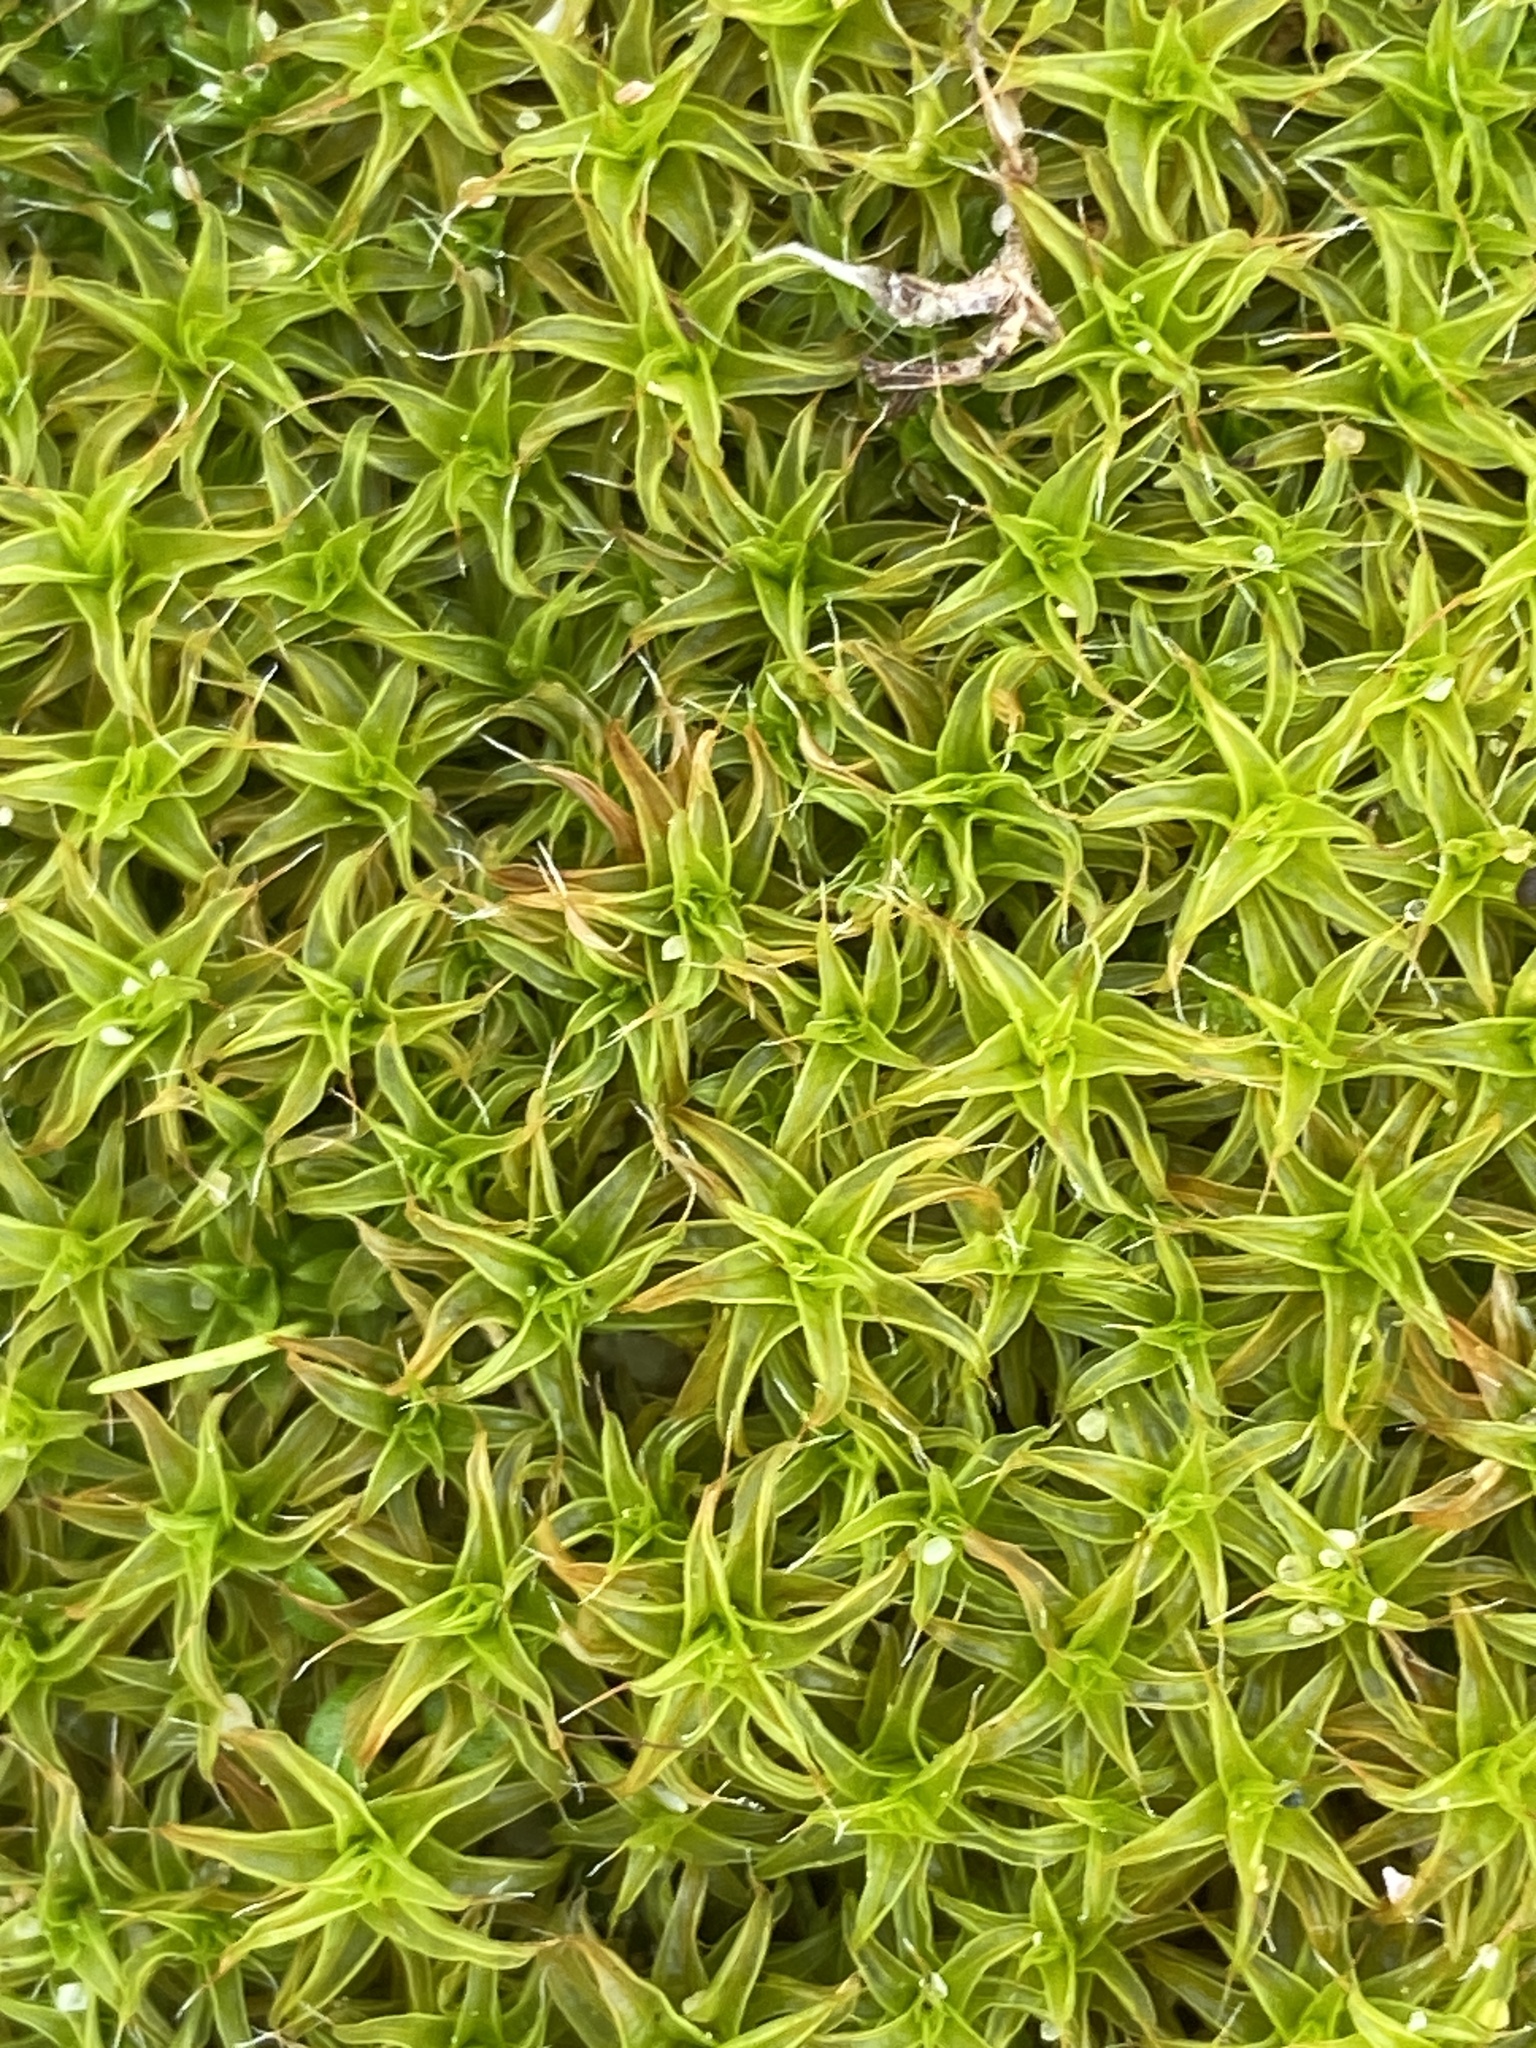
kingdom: Plantae
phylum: Bryophyta
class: Bryopsida
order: Pottiales
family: Pottiaceae
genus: Syntrichia
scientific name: Syntrichia ruralis
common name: Sidewalk screw moss
